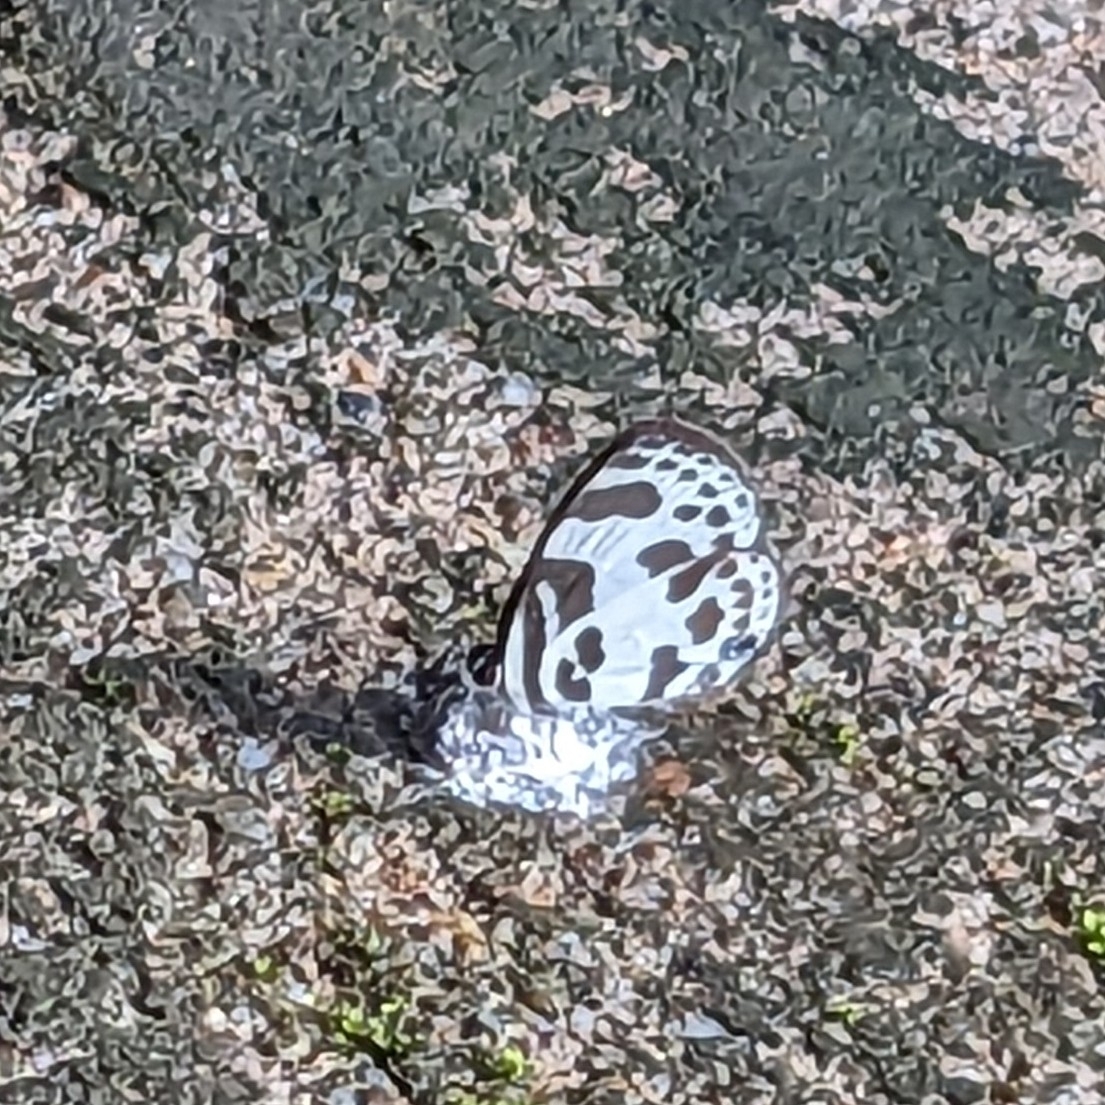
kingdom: Animalia
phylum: Arthropoda
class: Insecta
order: Lepidoptera
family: Lycaenidae
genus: Discolampa
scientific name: Discolampa ethion
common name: Banded blue pierrot
